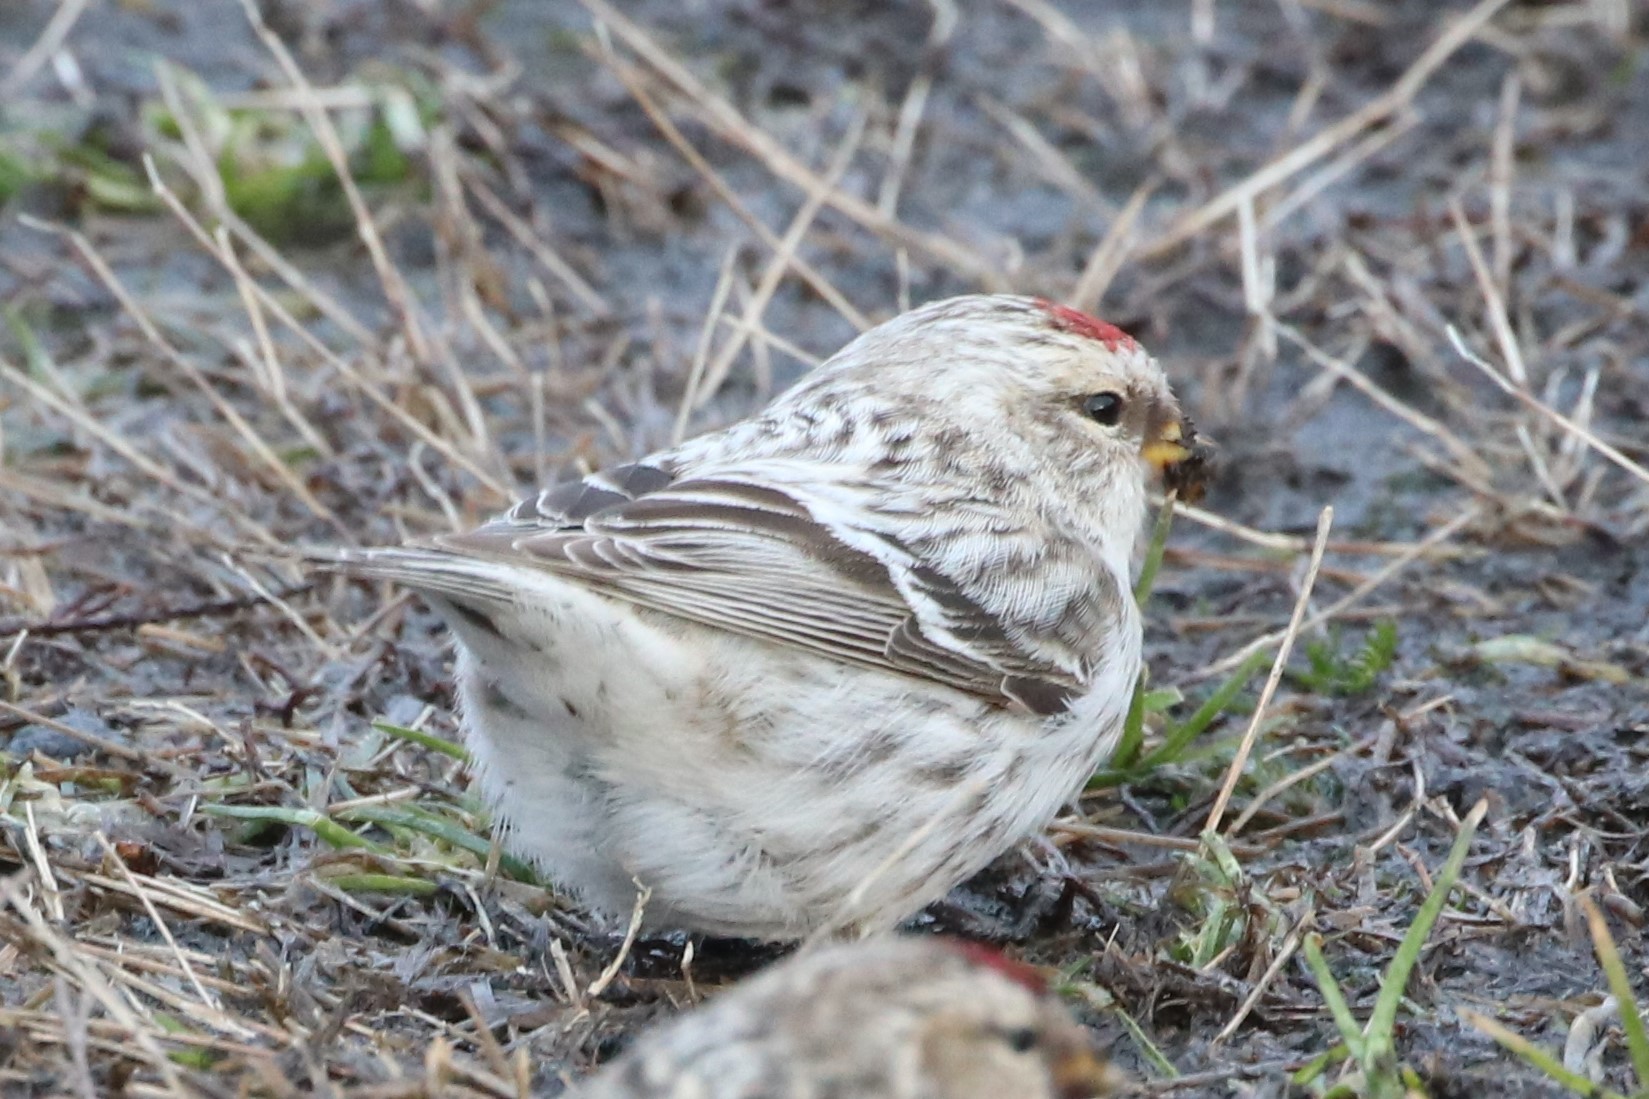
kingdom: Animalia
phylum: Chordata
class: Aves
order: Passeriformes
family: Fringillidae
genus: Acanthis
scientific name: Acanthis hornemanni
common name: Arctic redpoll
